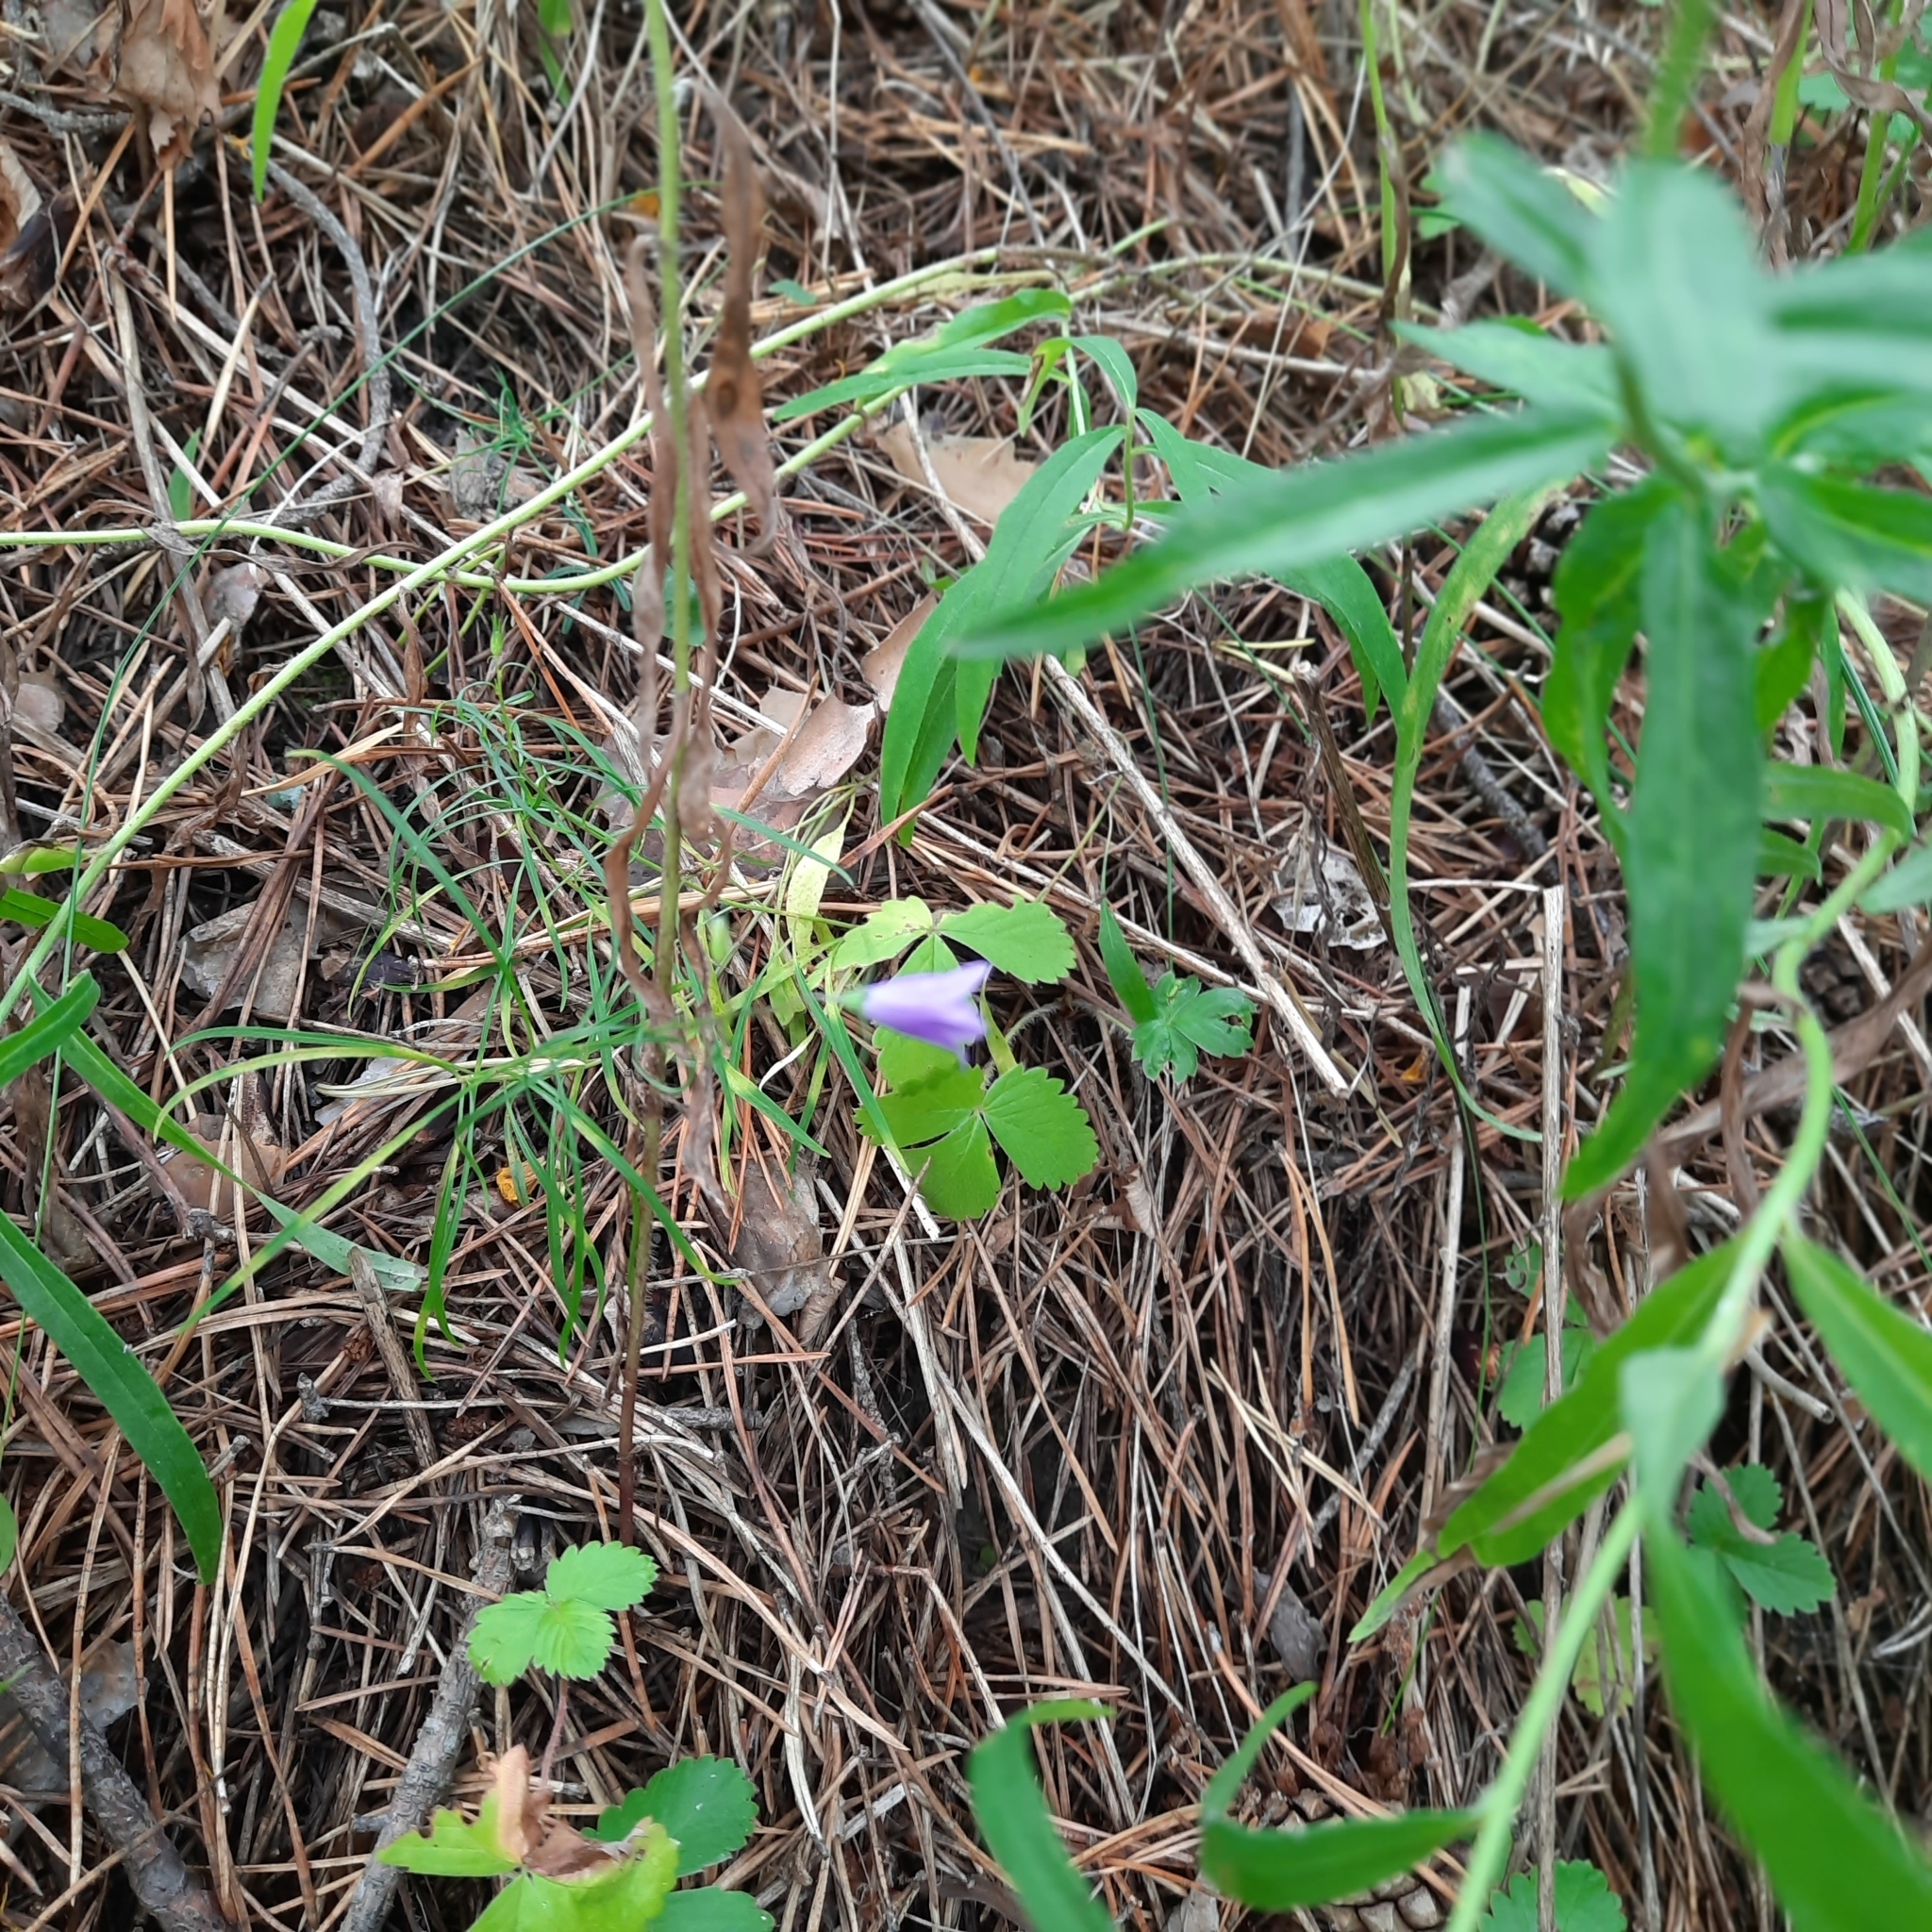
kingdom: Plantae
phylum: Tracheophyta
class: Magnoliopsida
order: Asterales
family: Campanulaceae
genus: Campanula
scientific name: Campanula rotundifolia
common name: Harebell
